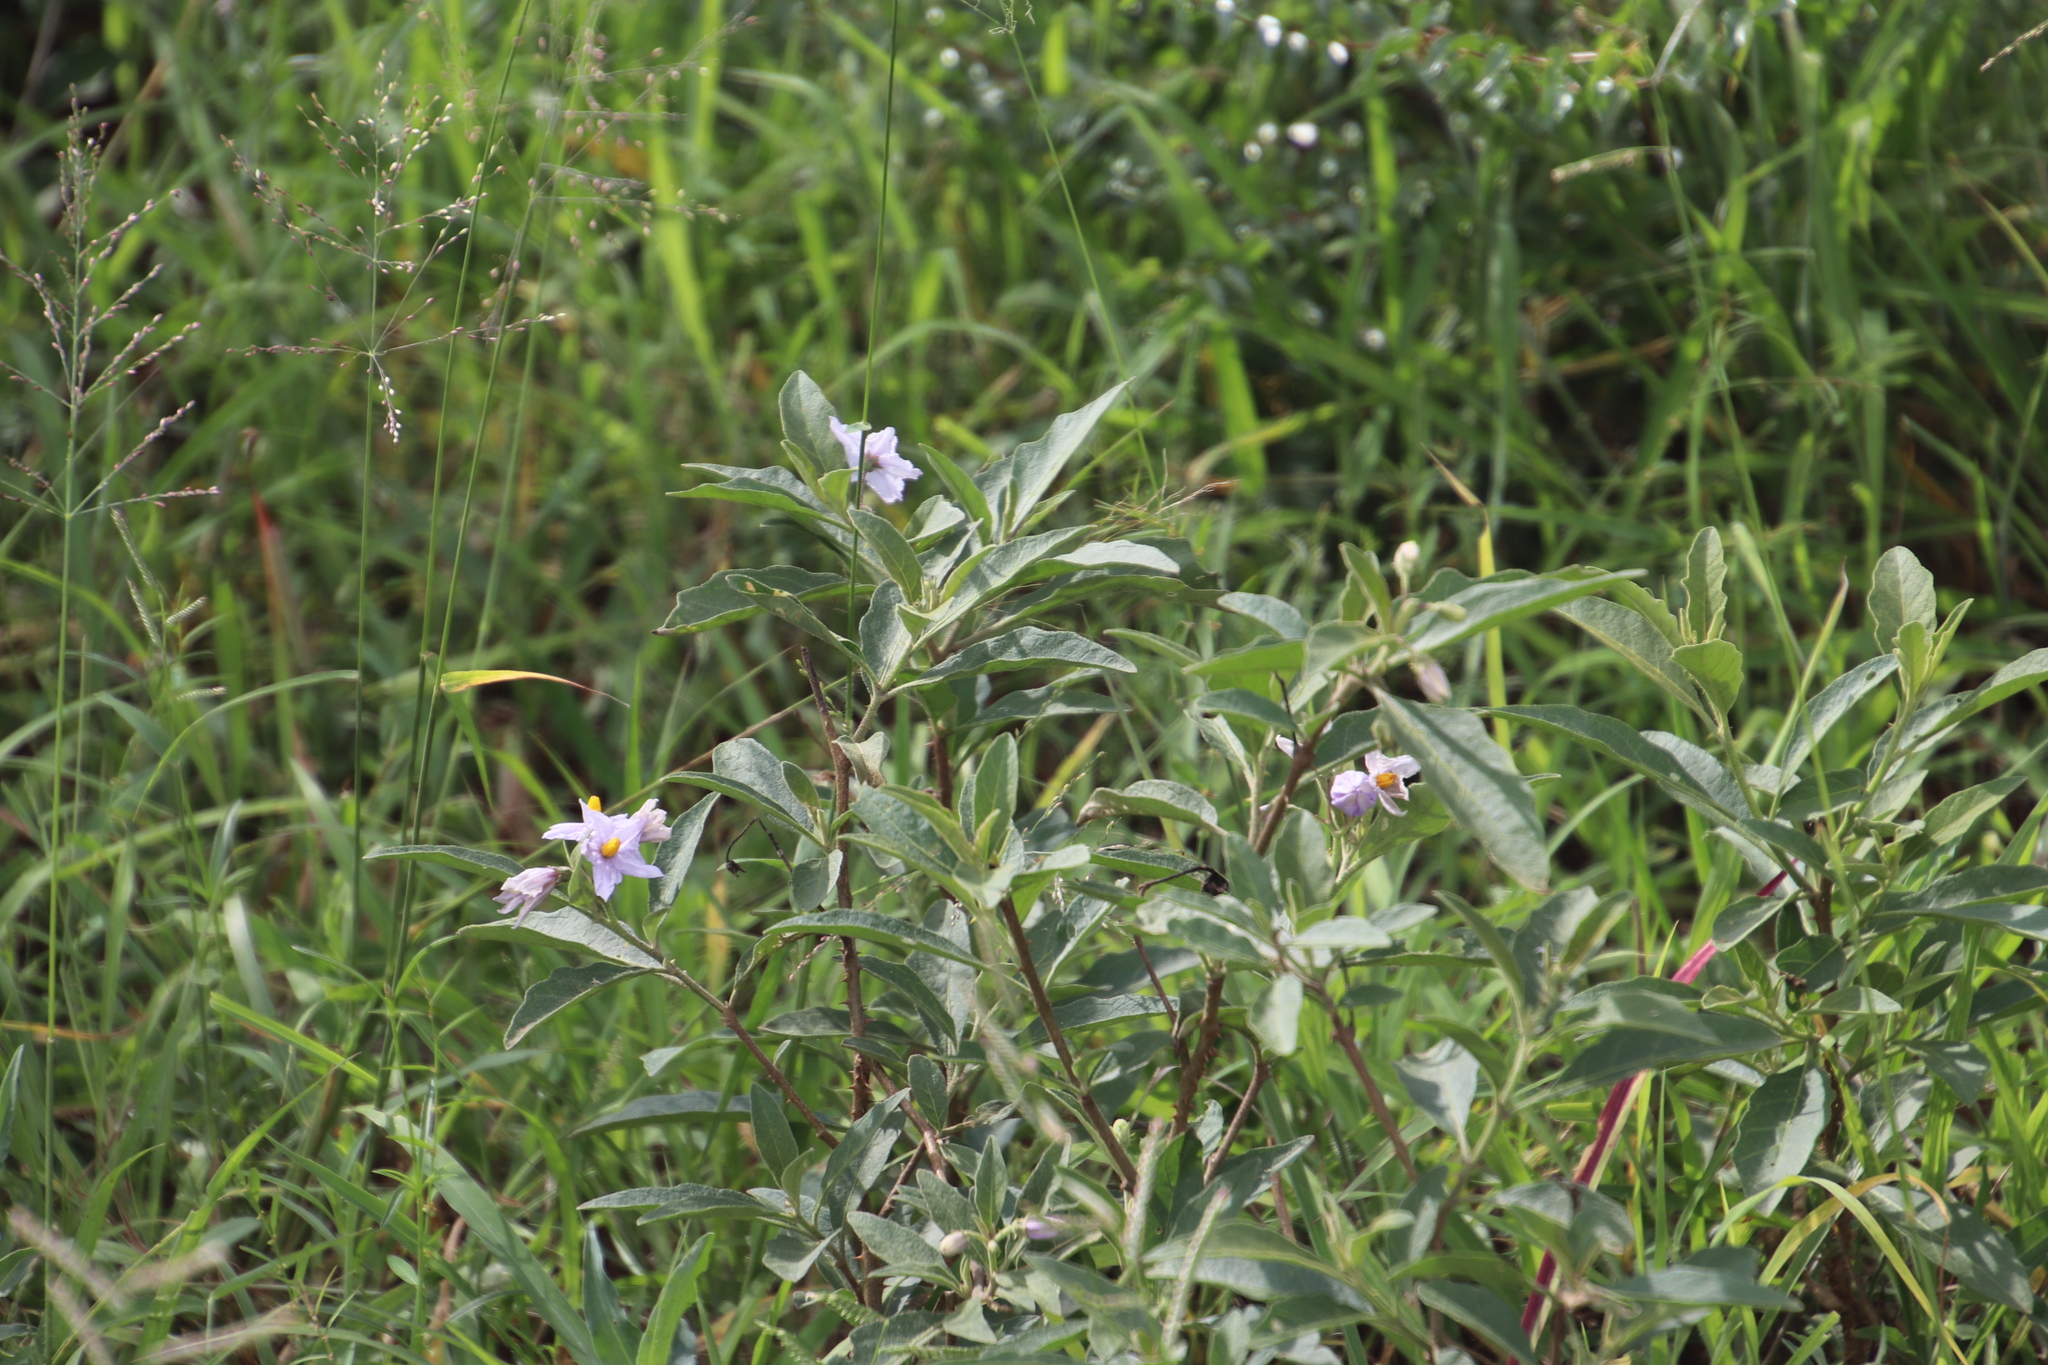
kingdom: Plantae
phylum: Tracheophyta
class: Magnoliopsida
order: Solanales
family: Solanaceae
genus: Solanum
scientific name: Solanum campylacanthum
